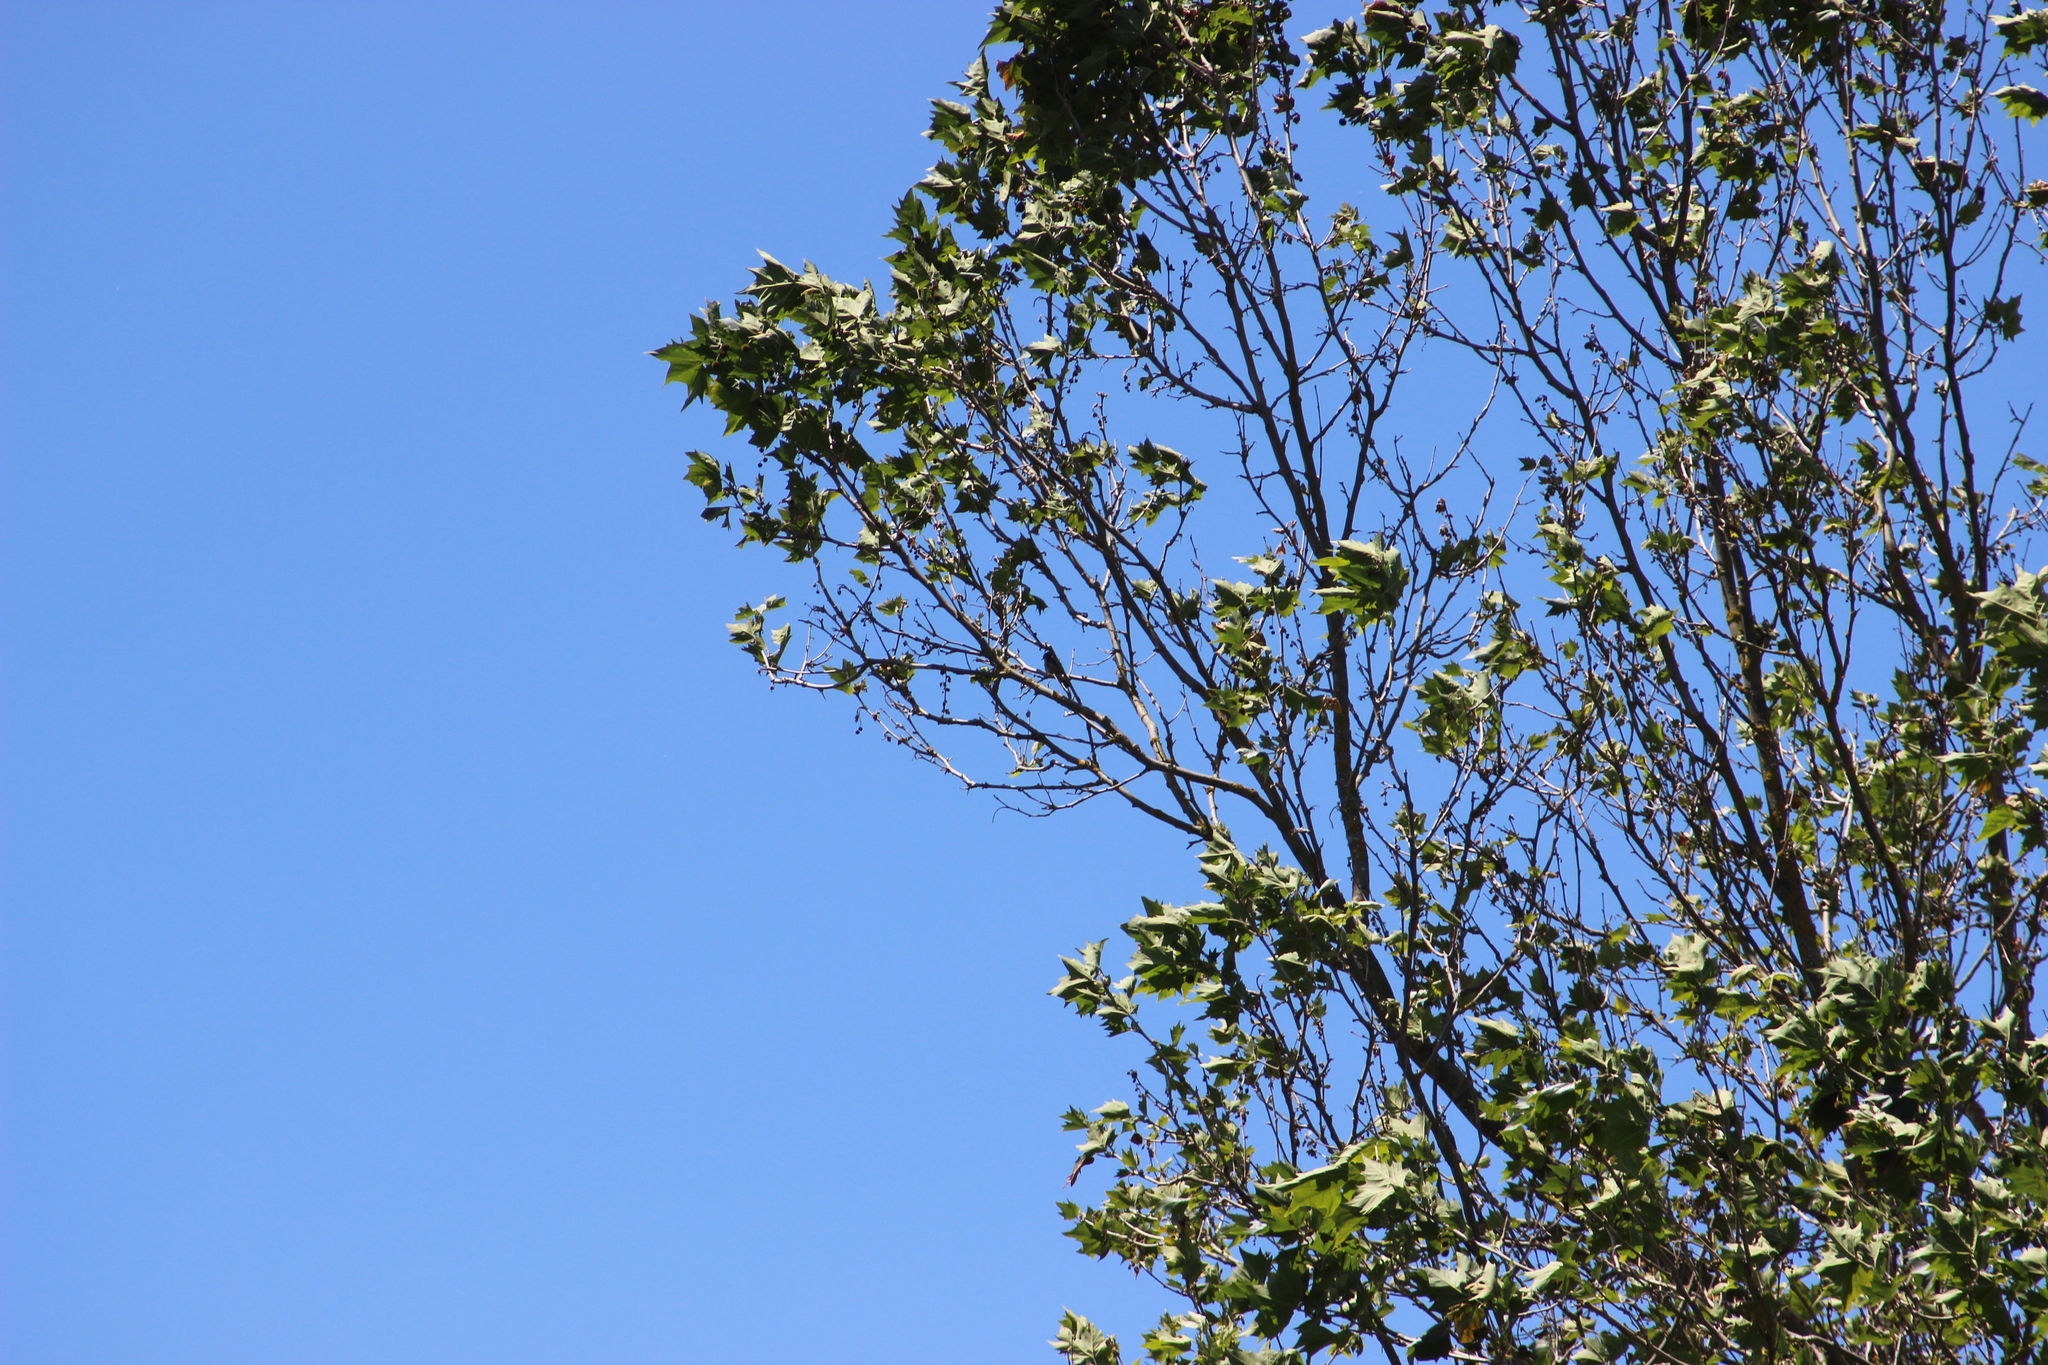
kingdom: Animalia
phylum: Chordata
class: Aves
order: Cuculiformes
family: Cuculidae
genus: Chrysococcyx
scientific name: Chrysococcyx lucidus
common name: Shining bronze cuckoo
